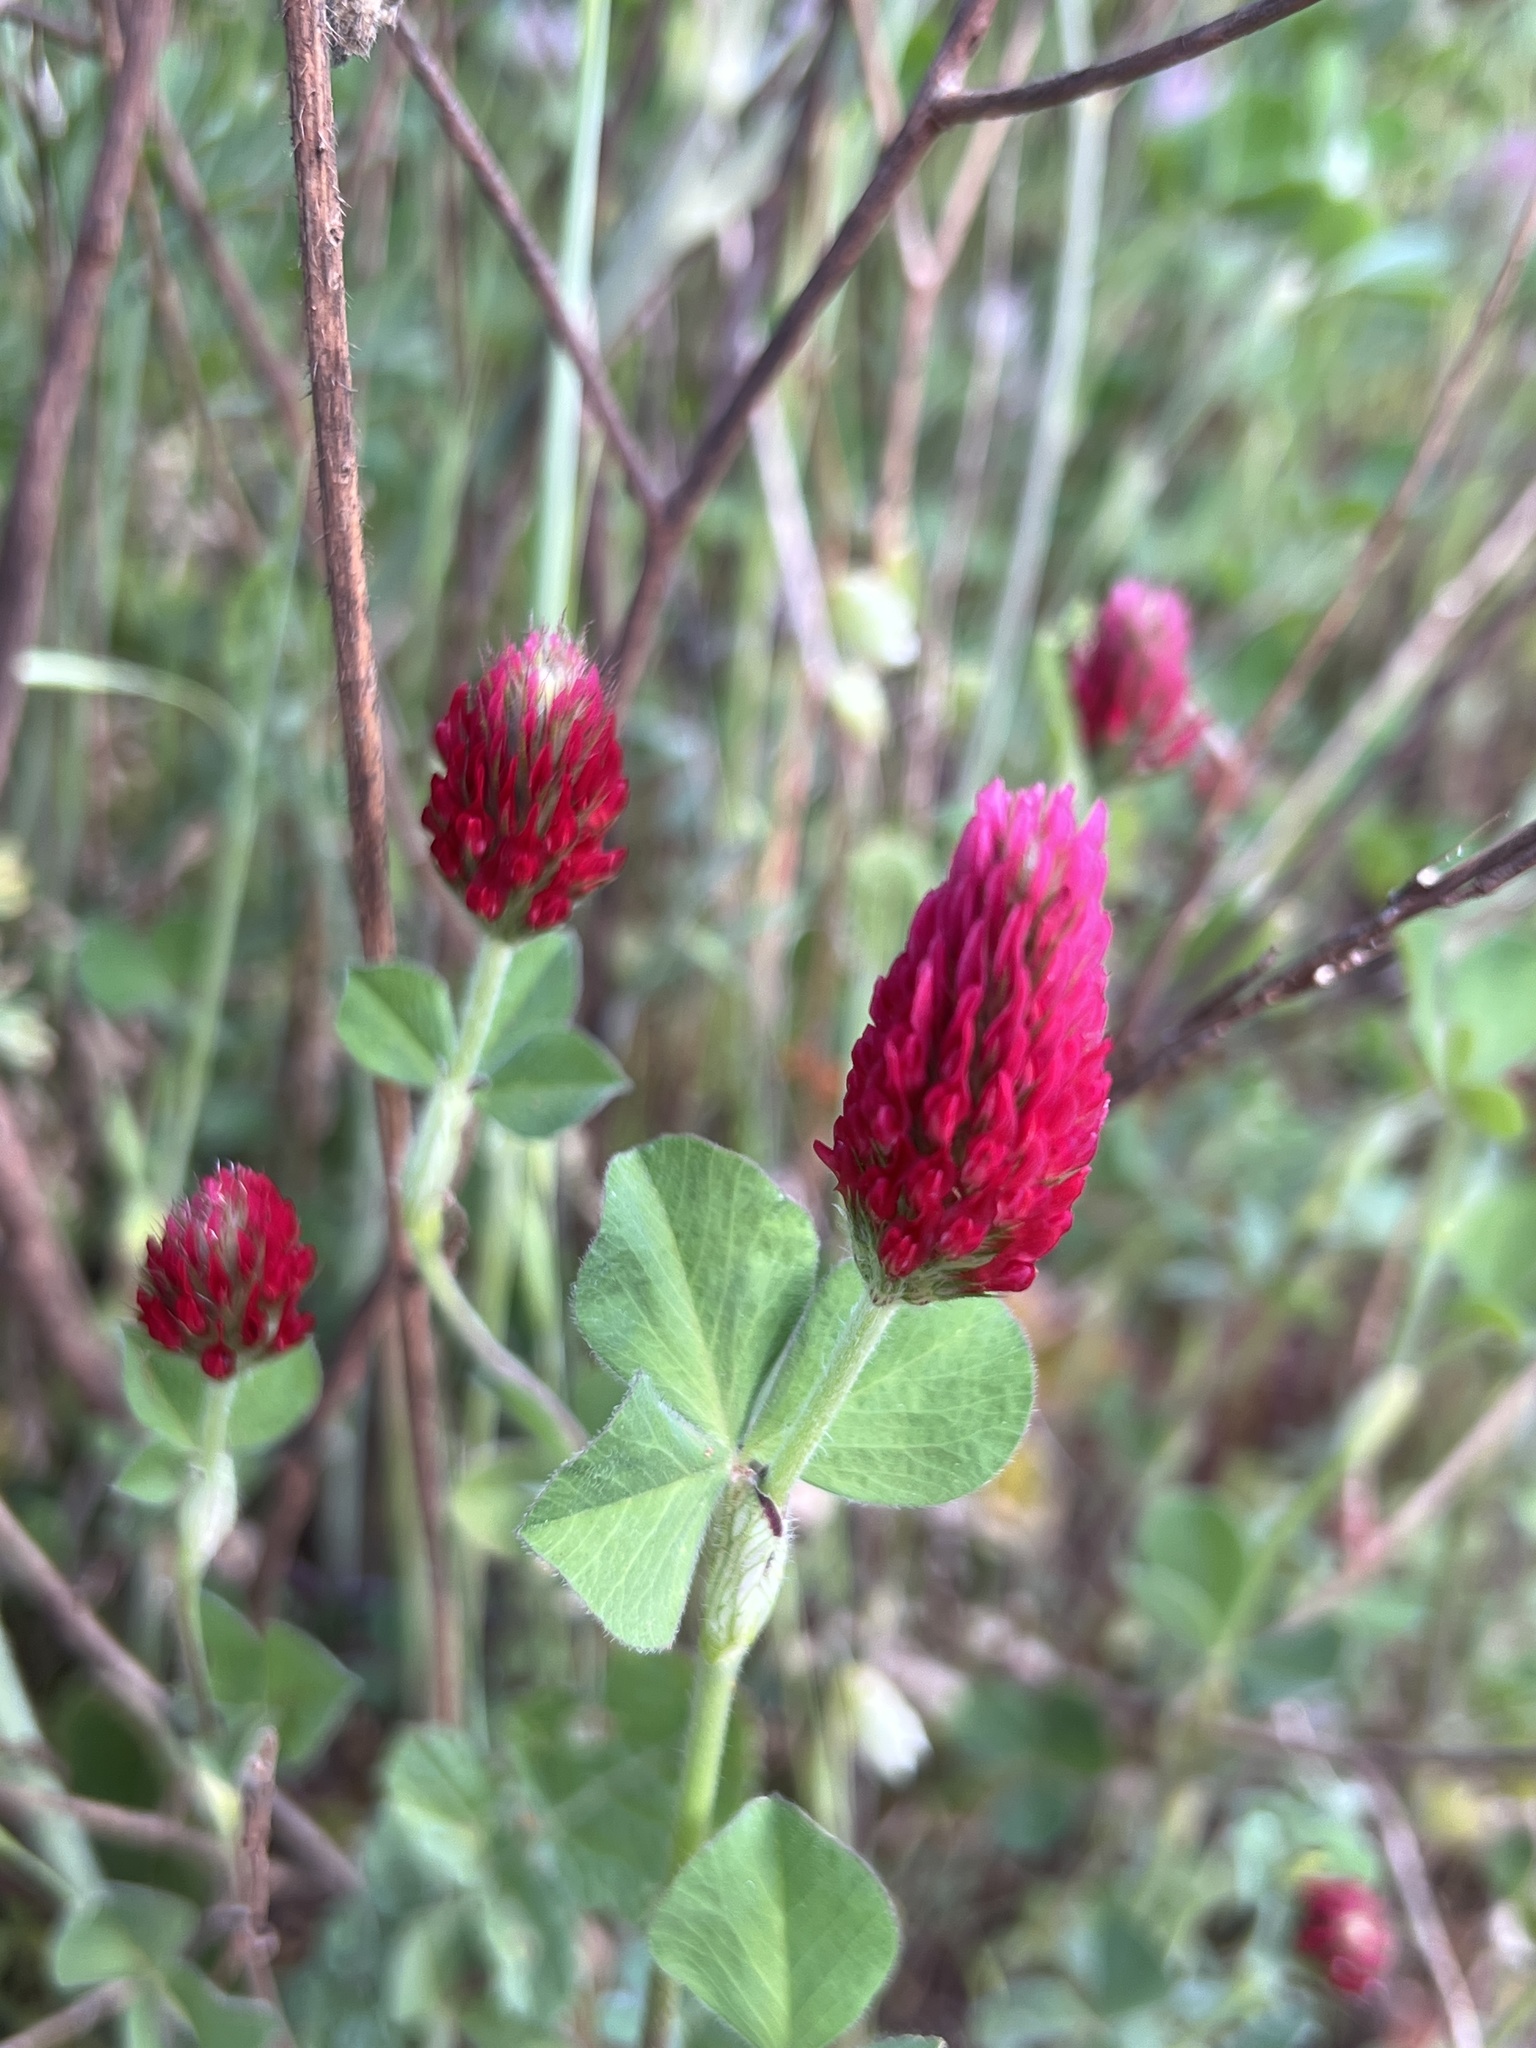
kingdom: Plantae
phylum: Tracheophyta
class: Magnoliopsida
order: Fabales
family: Fabaceae
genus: Trifolium
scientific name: Trifolium incarnatum
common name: Crimson clover
